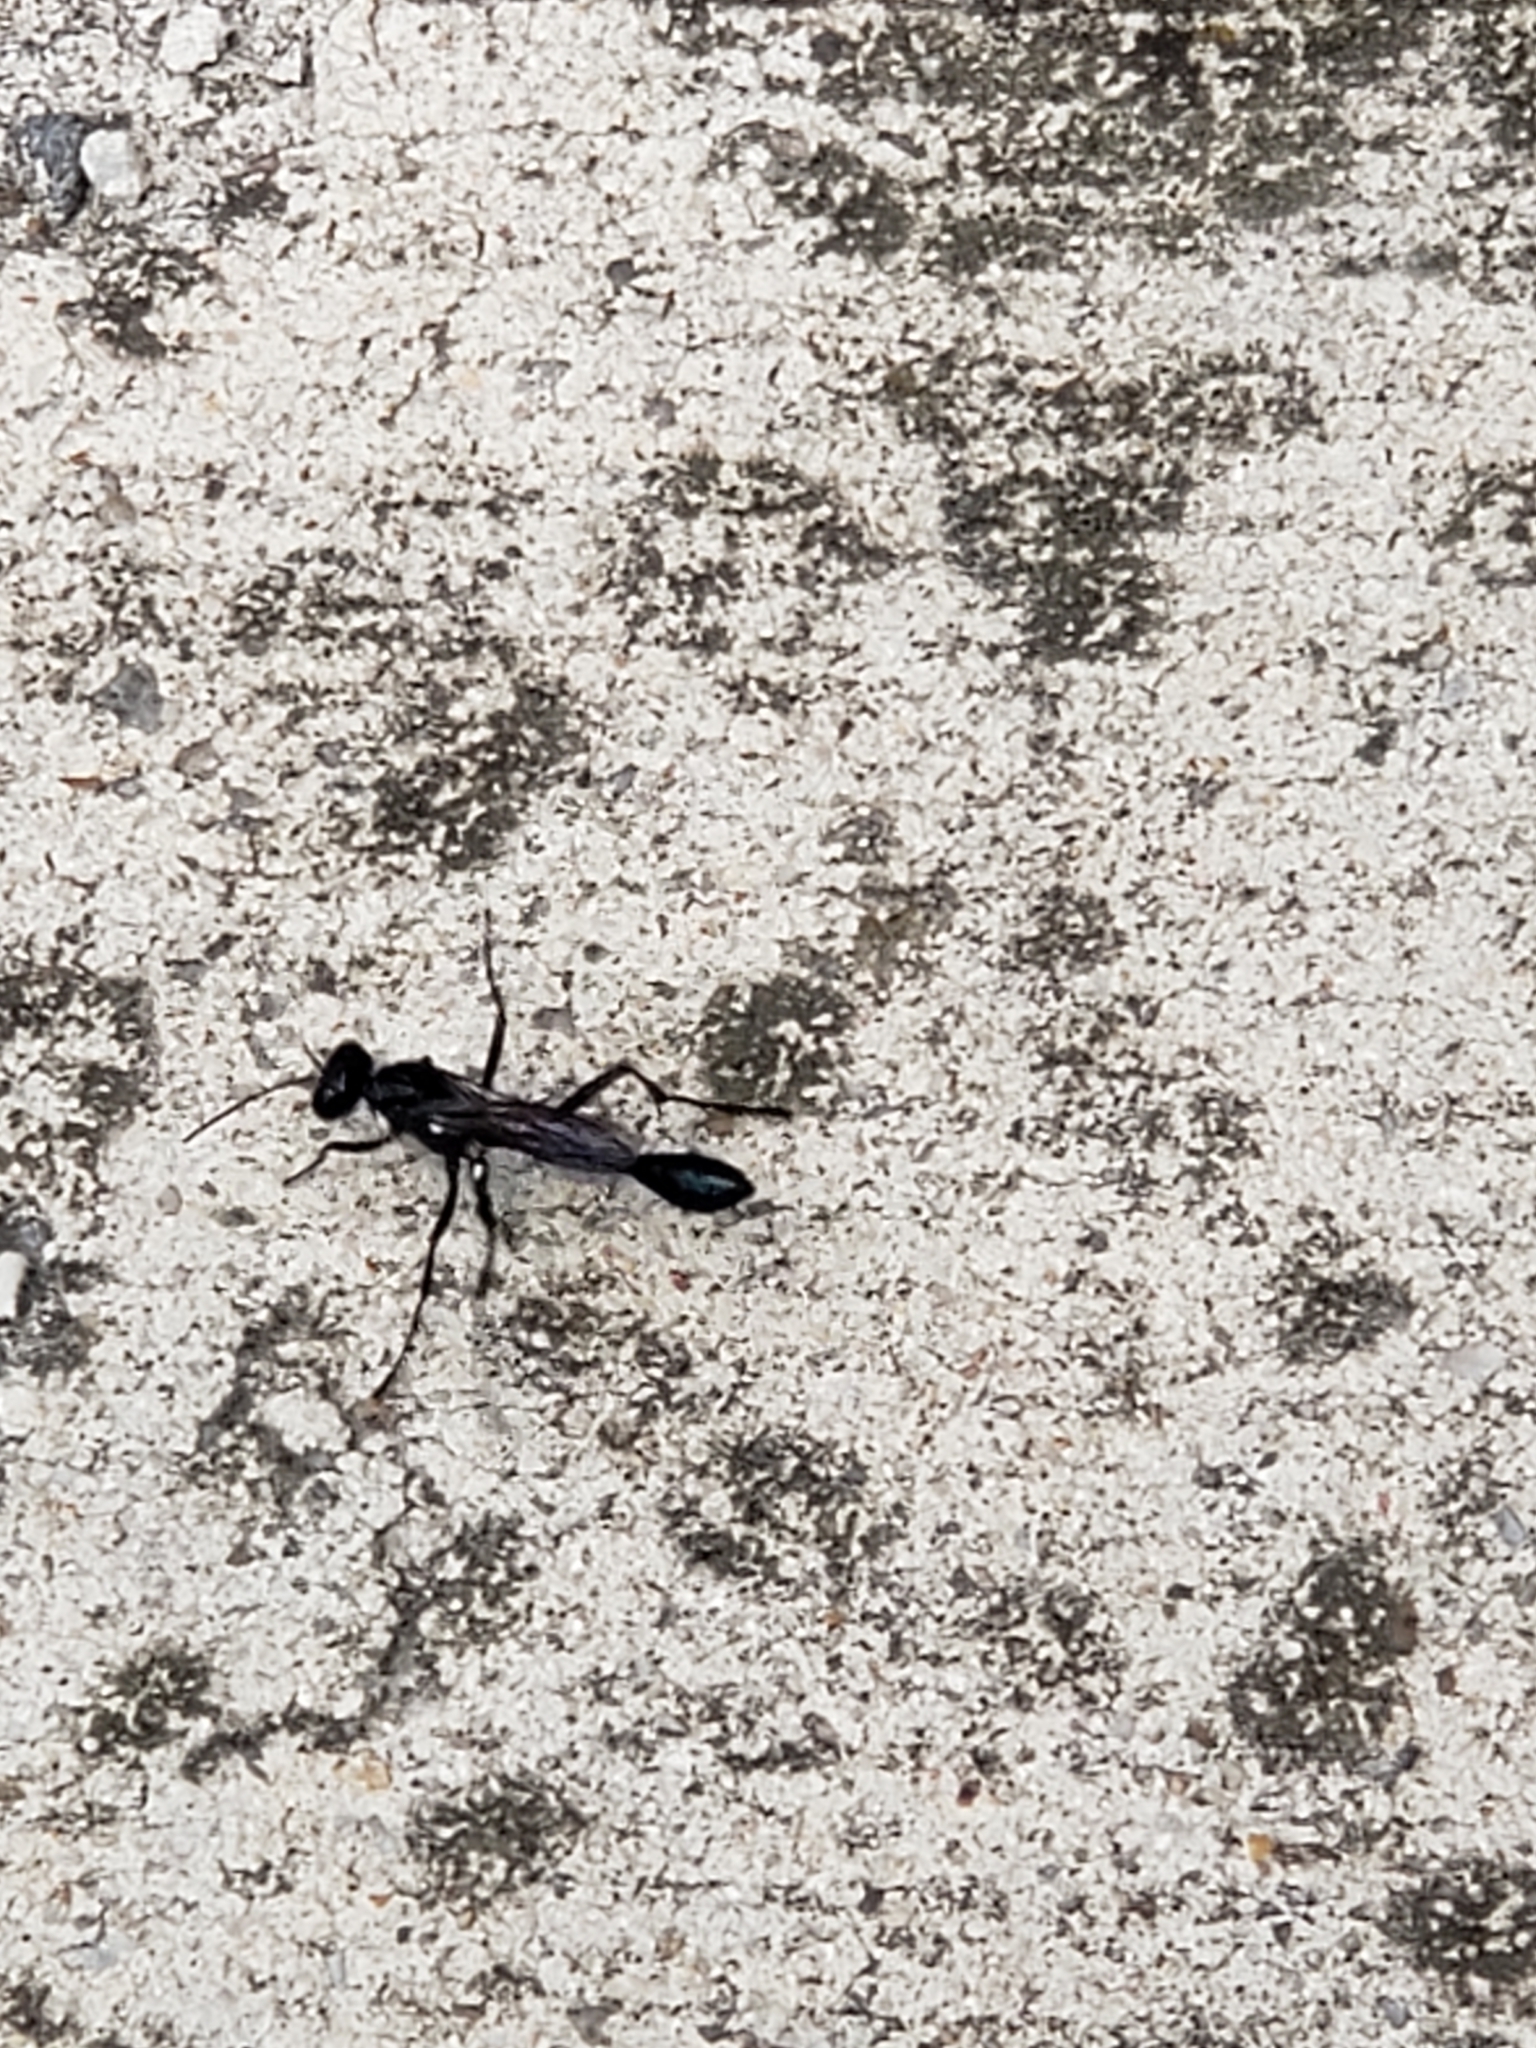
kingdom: Animalia
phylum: Arthropoda
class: Insecta
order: Hymenoptera
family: Sphecidae
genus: Eremnophila
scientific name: Eremnophila aureonotata
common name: Gold-marked thread-waisted wasp
